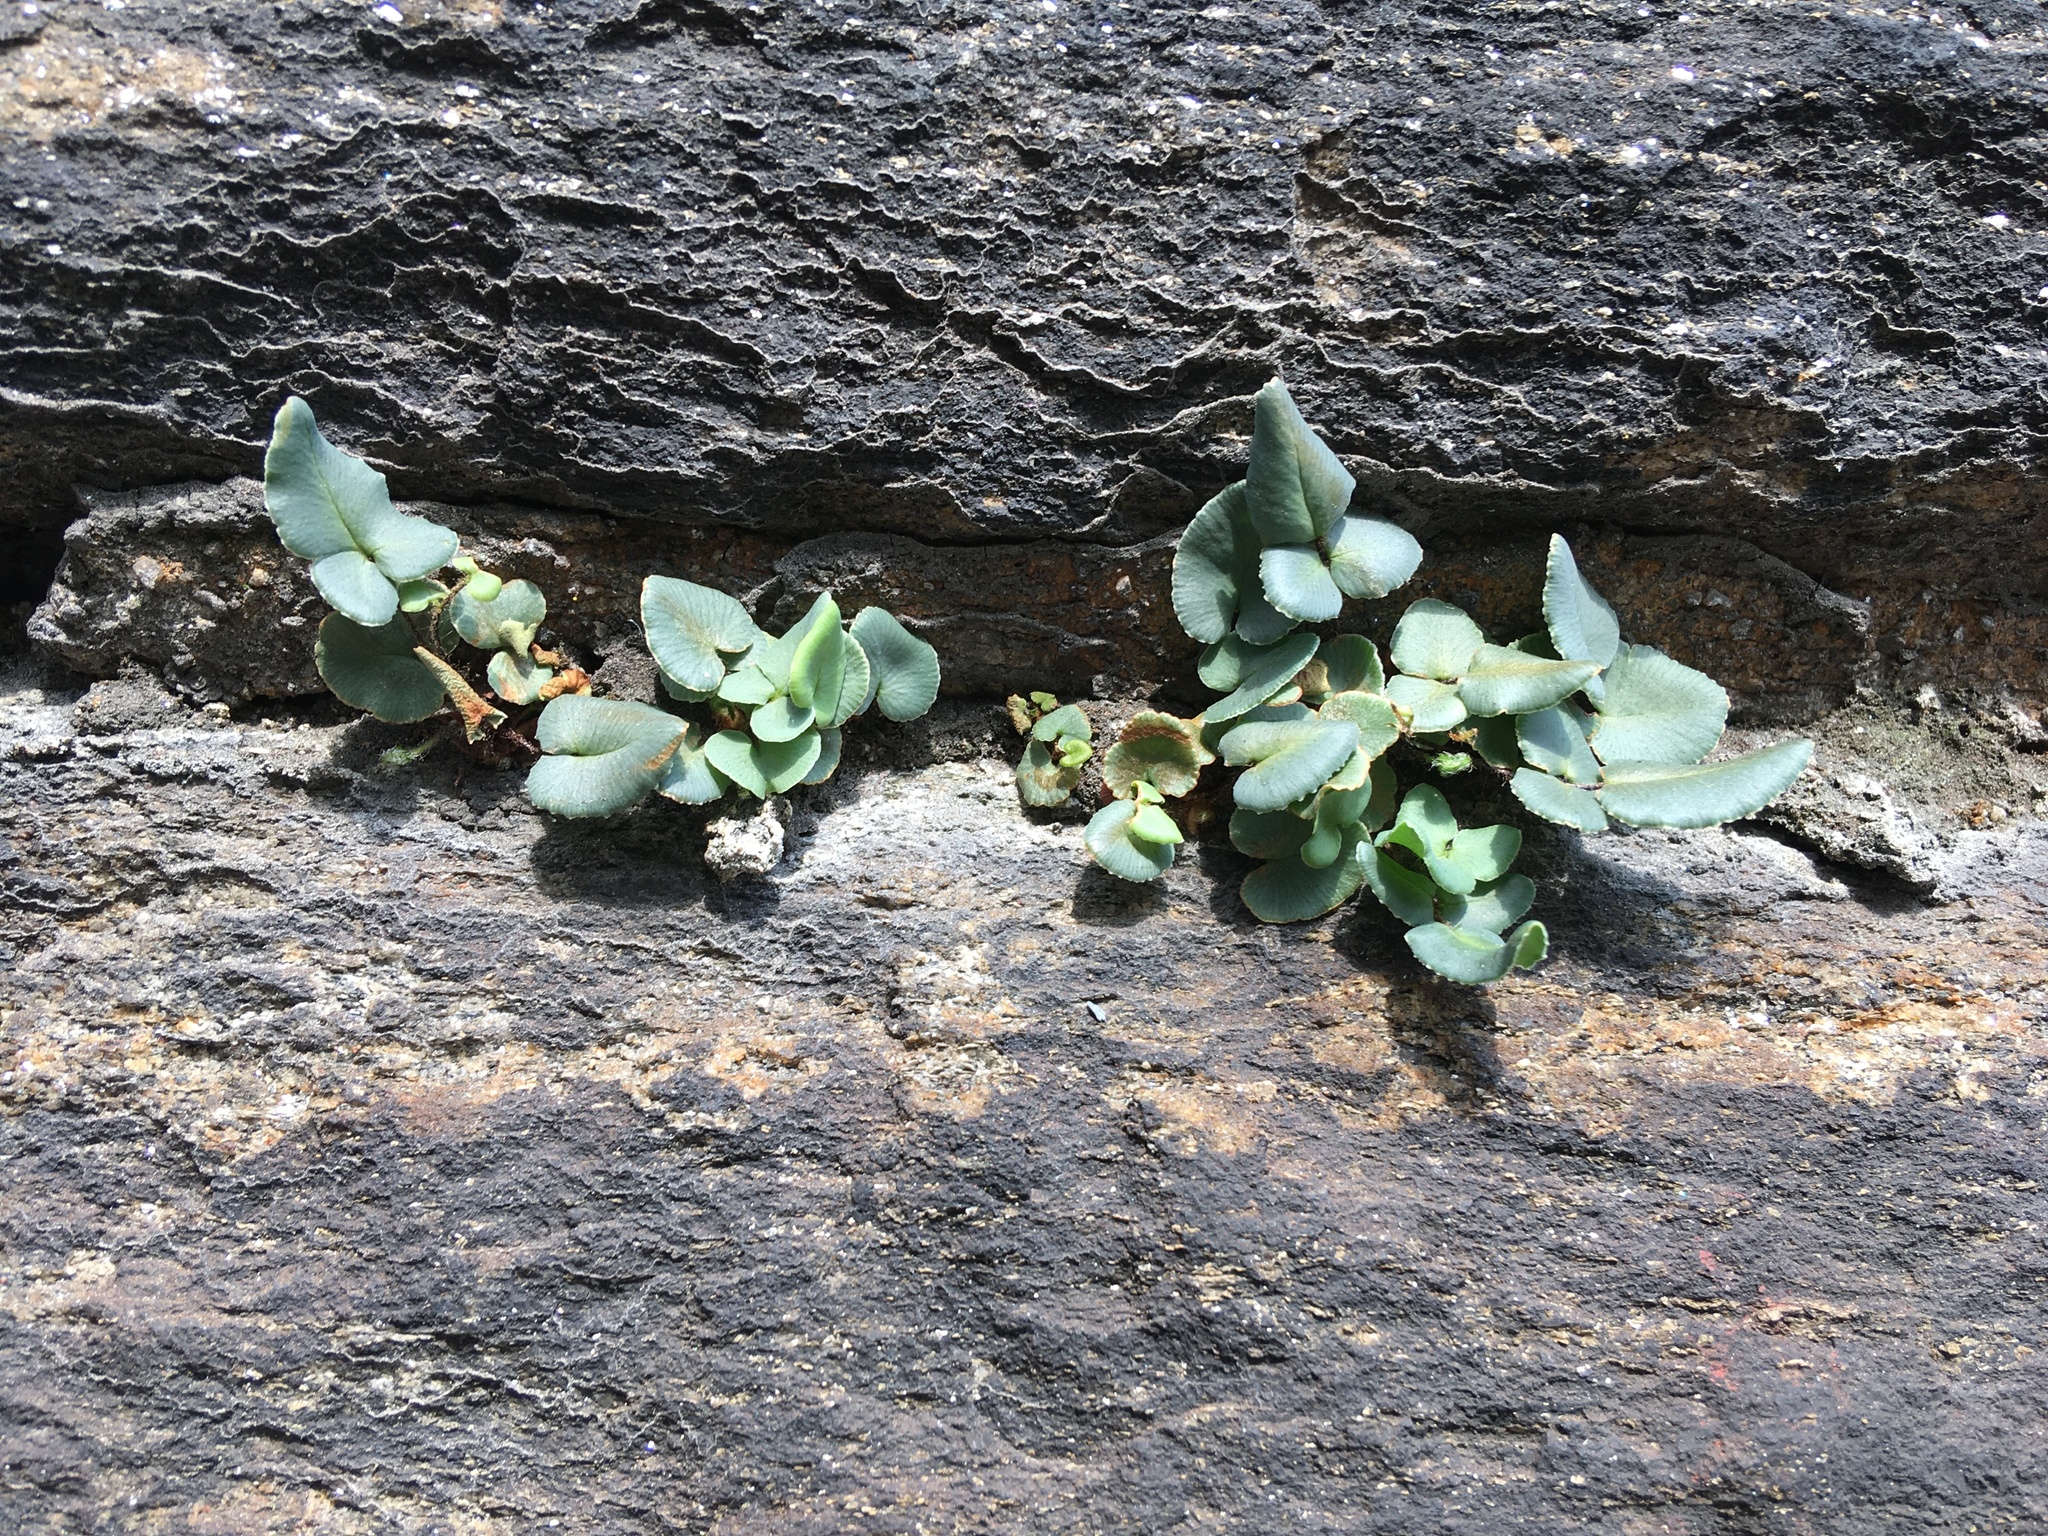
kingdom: Plantae
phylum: Tracheophyta
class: Polypodiopsida
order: Polypodiales
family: Pteridaceae
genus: Pellaea
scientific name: Pellaea atropurpurea
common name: Hairy cliffbrake
